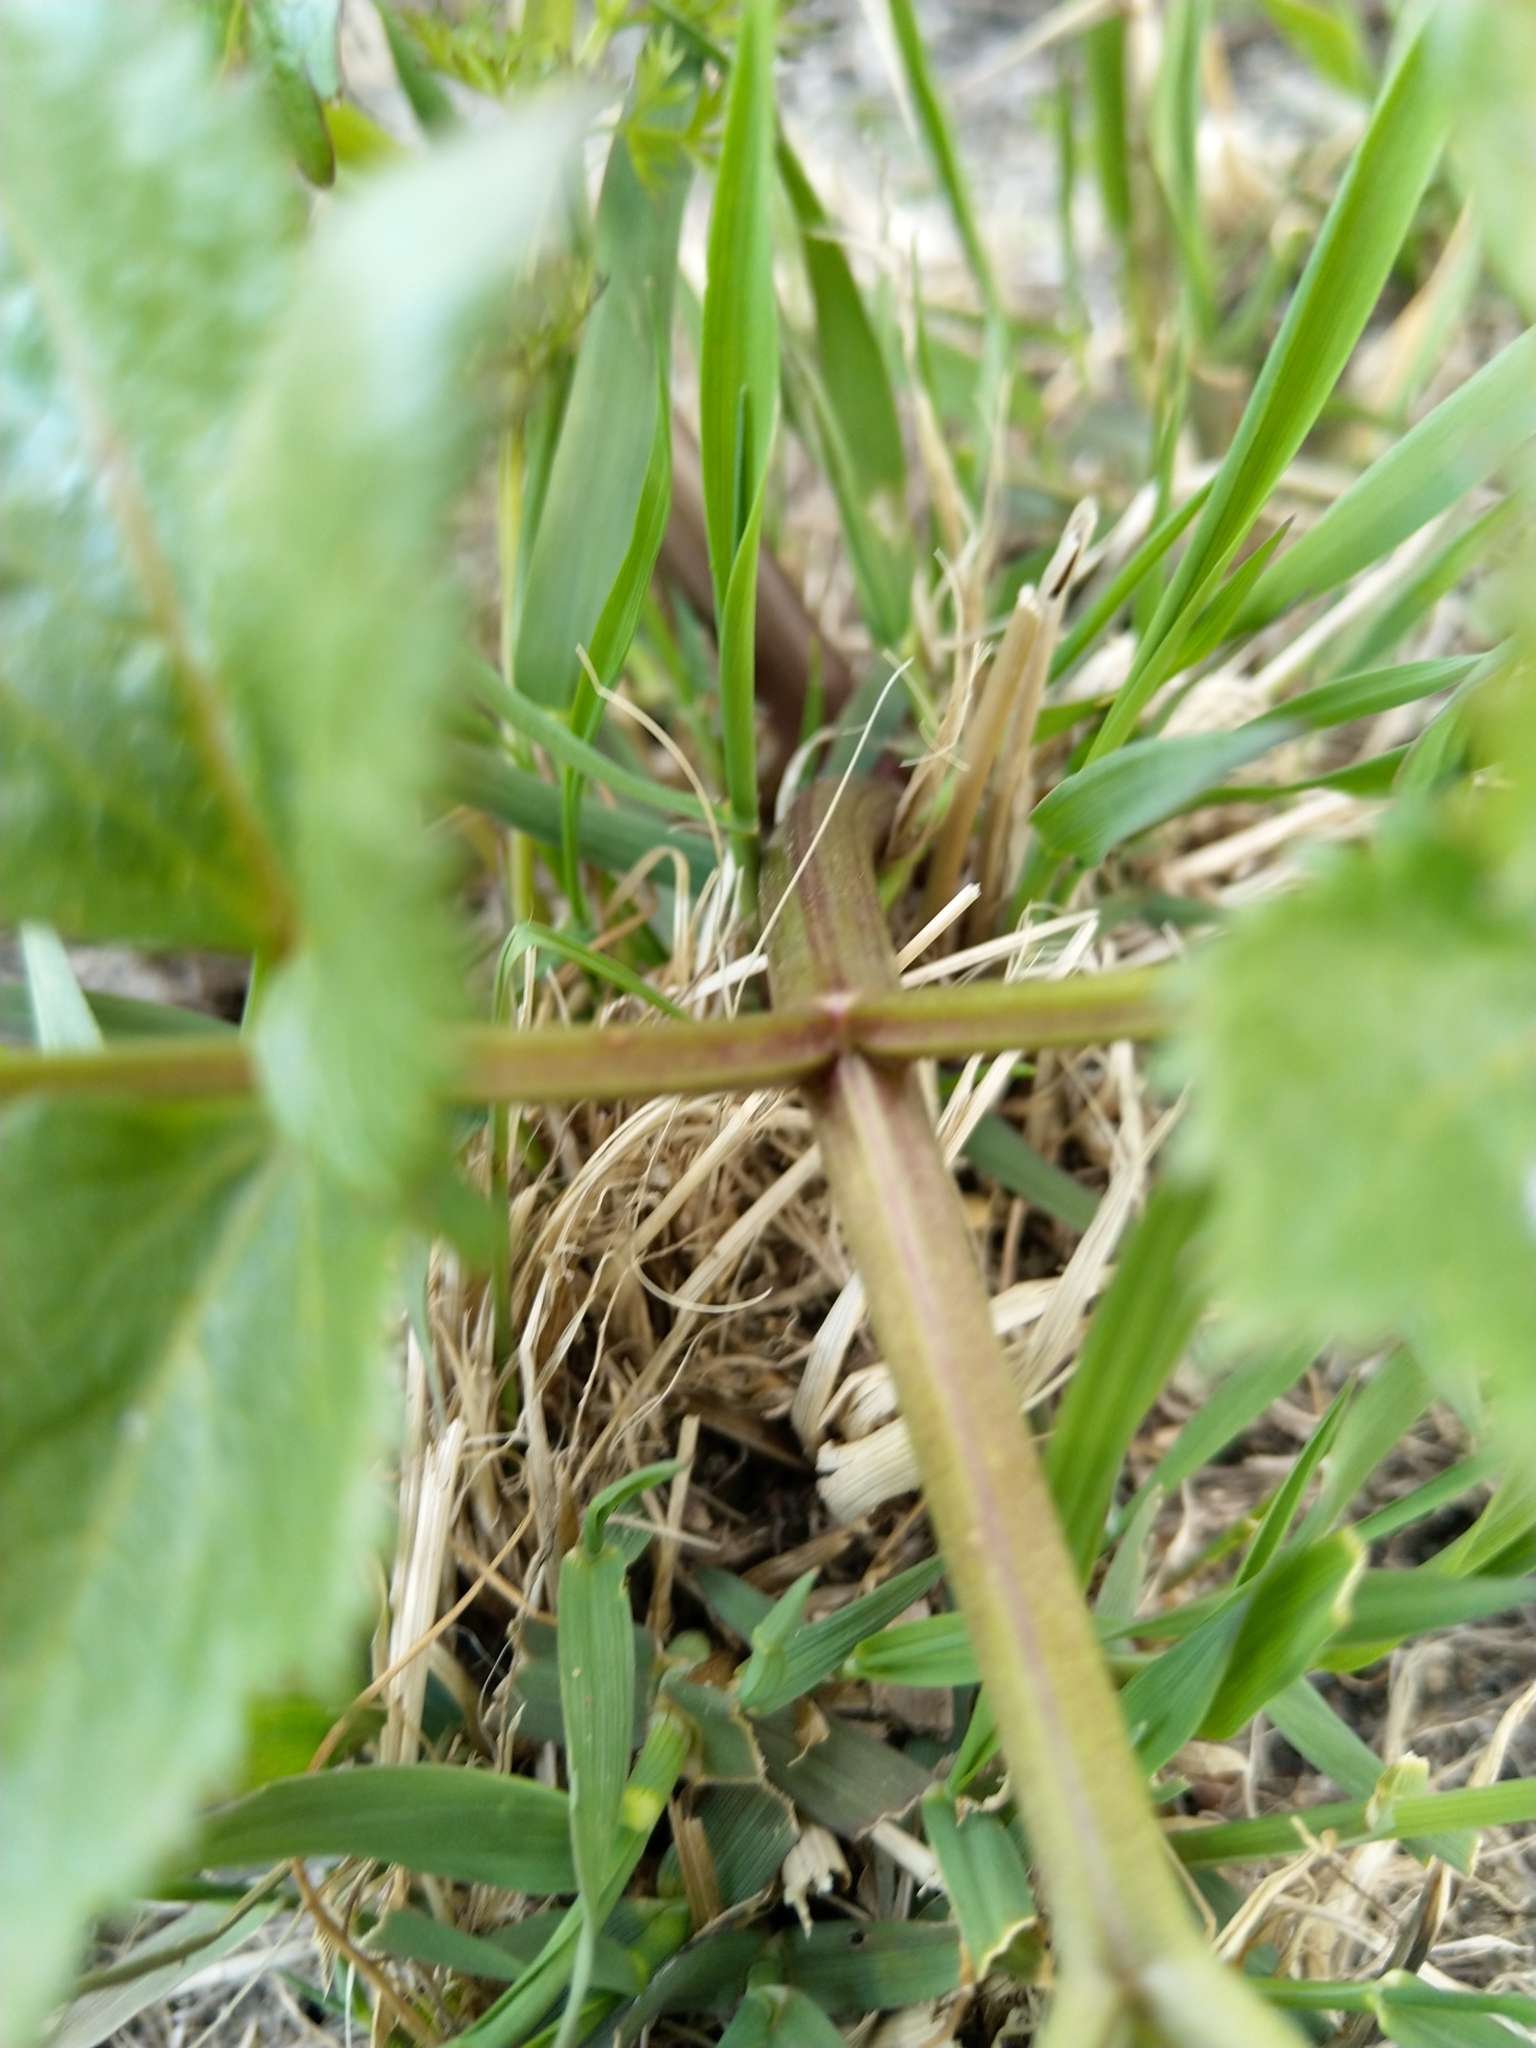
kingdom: Plantae
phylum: Tracheophyta
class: Magnoliopsida
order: Apiales
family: Apiaceae
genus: Angelica
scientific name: Angelica archangelica
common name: Garden angelica
